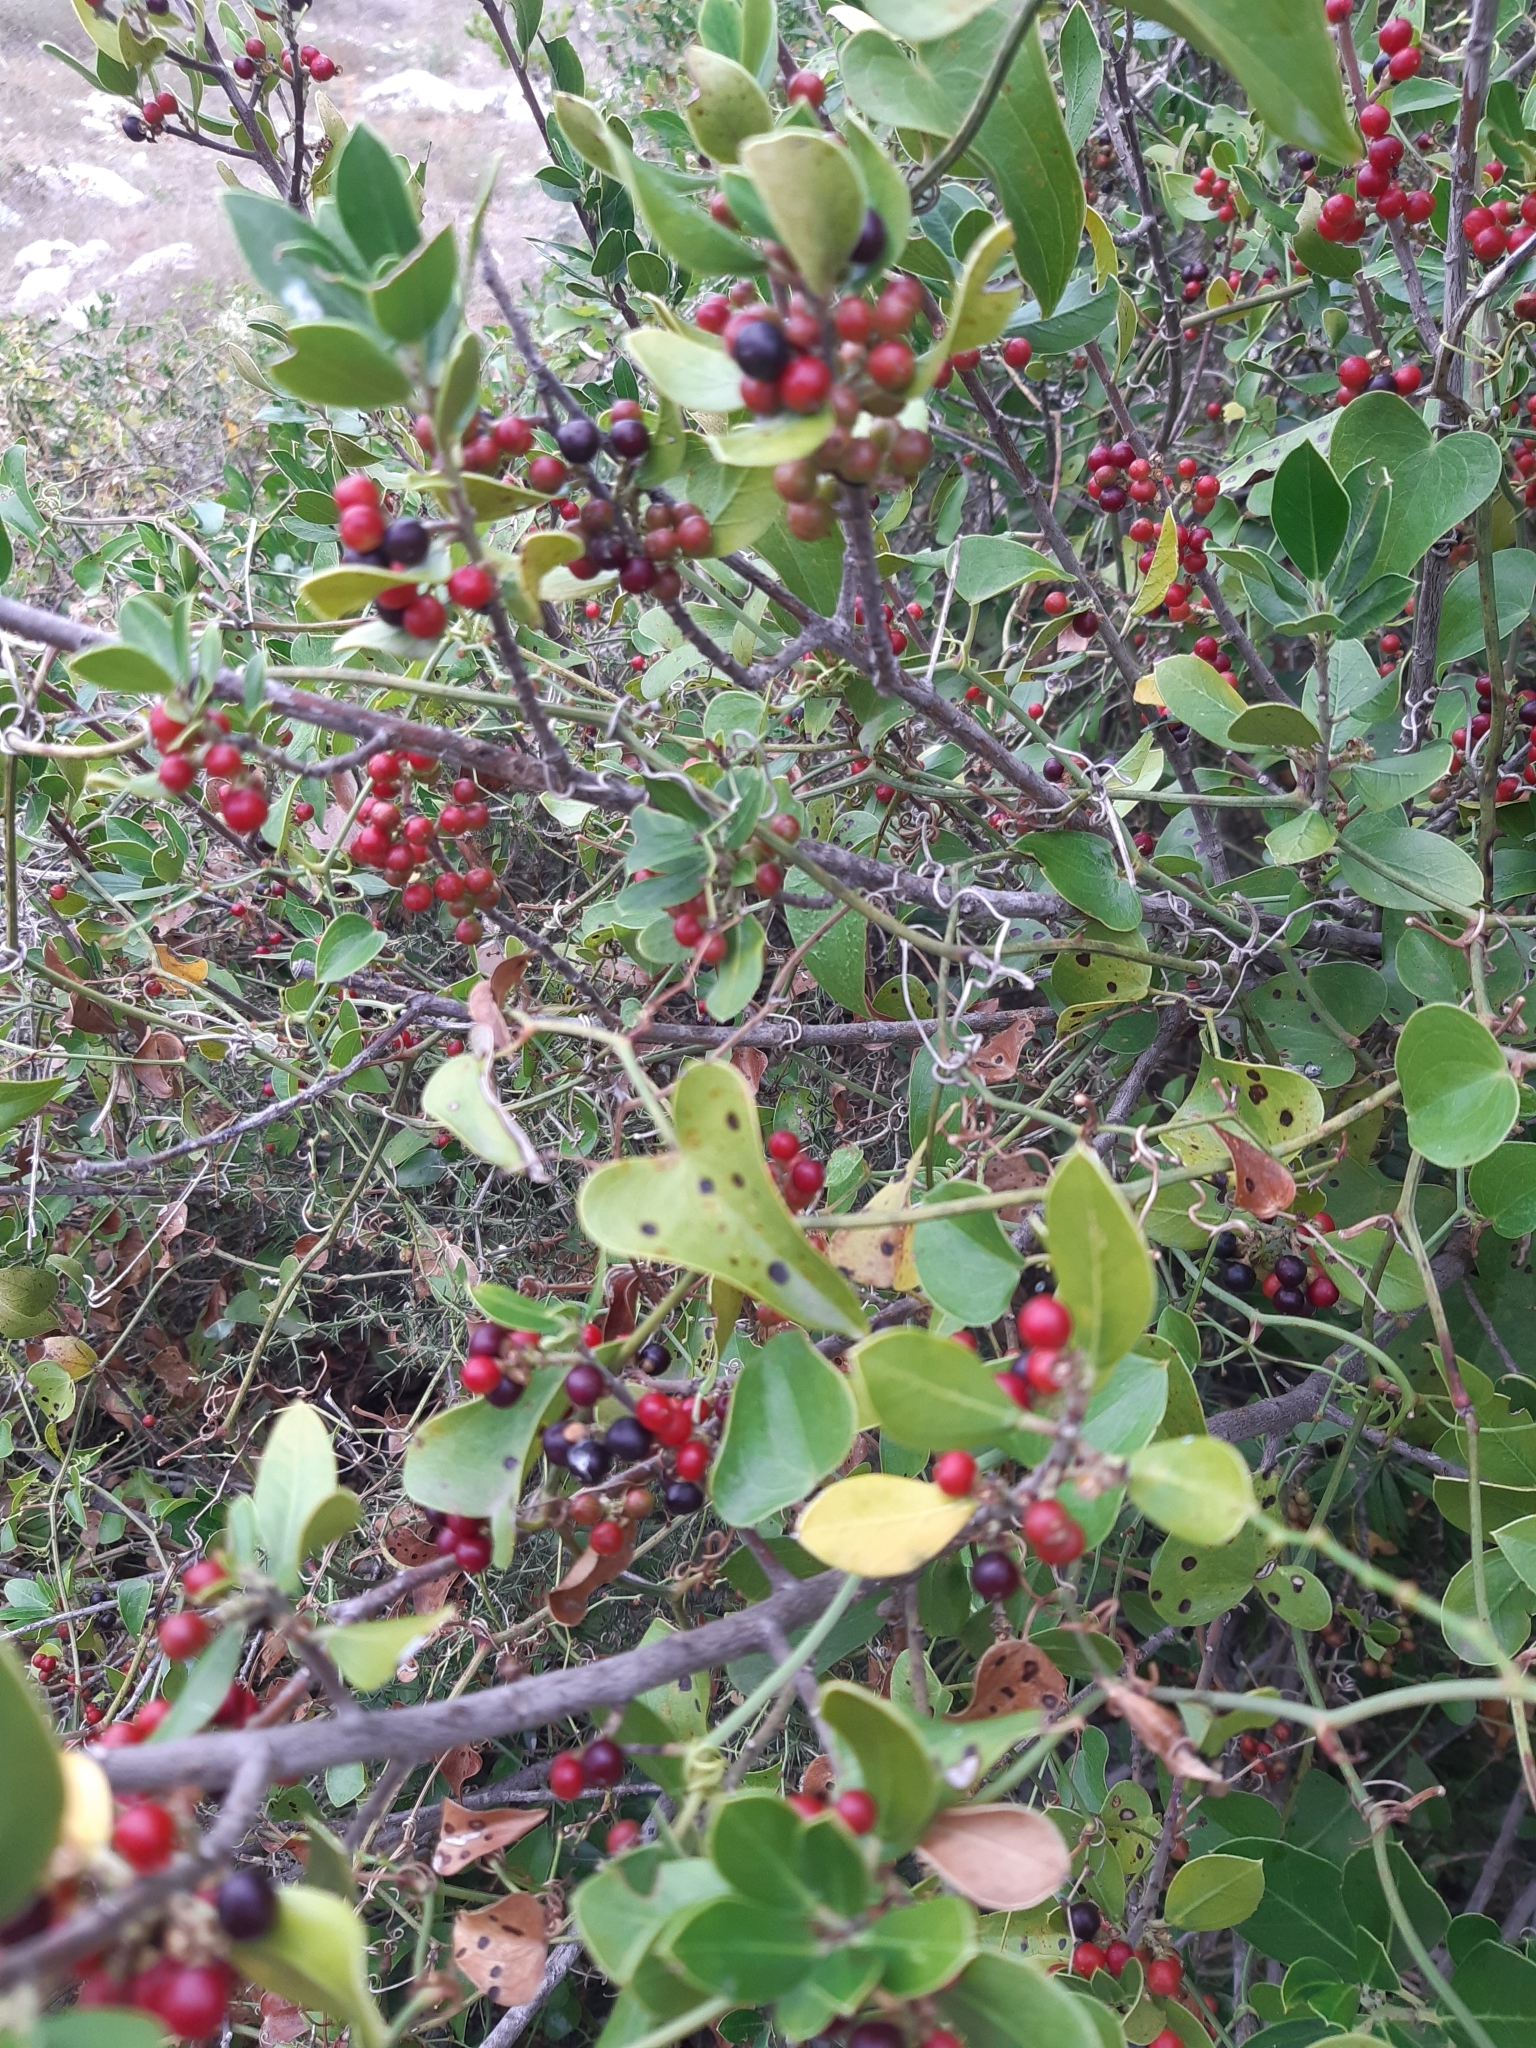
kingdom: Plantae
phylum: Tracheophyta
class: Magnoliopsida
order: Rosales
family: Rhamnaceae
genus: Rhamnus
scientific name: Rhamnus alaternus
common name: Mediterranean buckthorn
